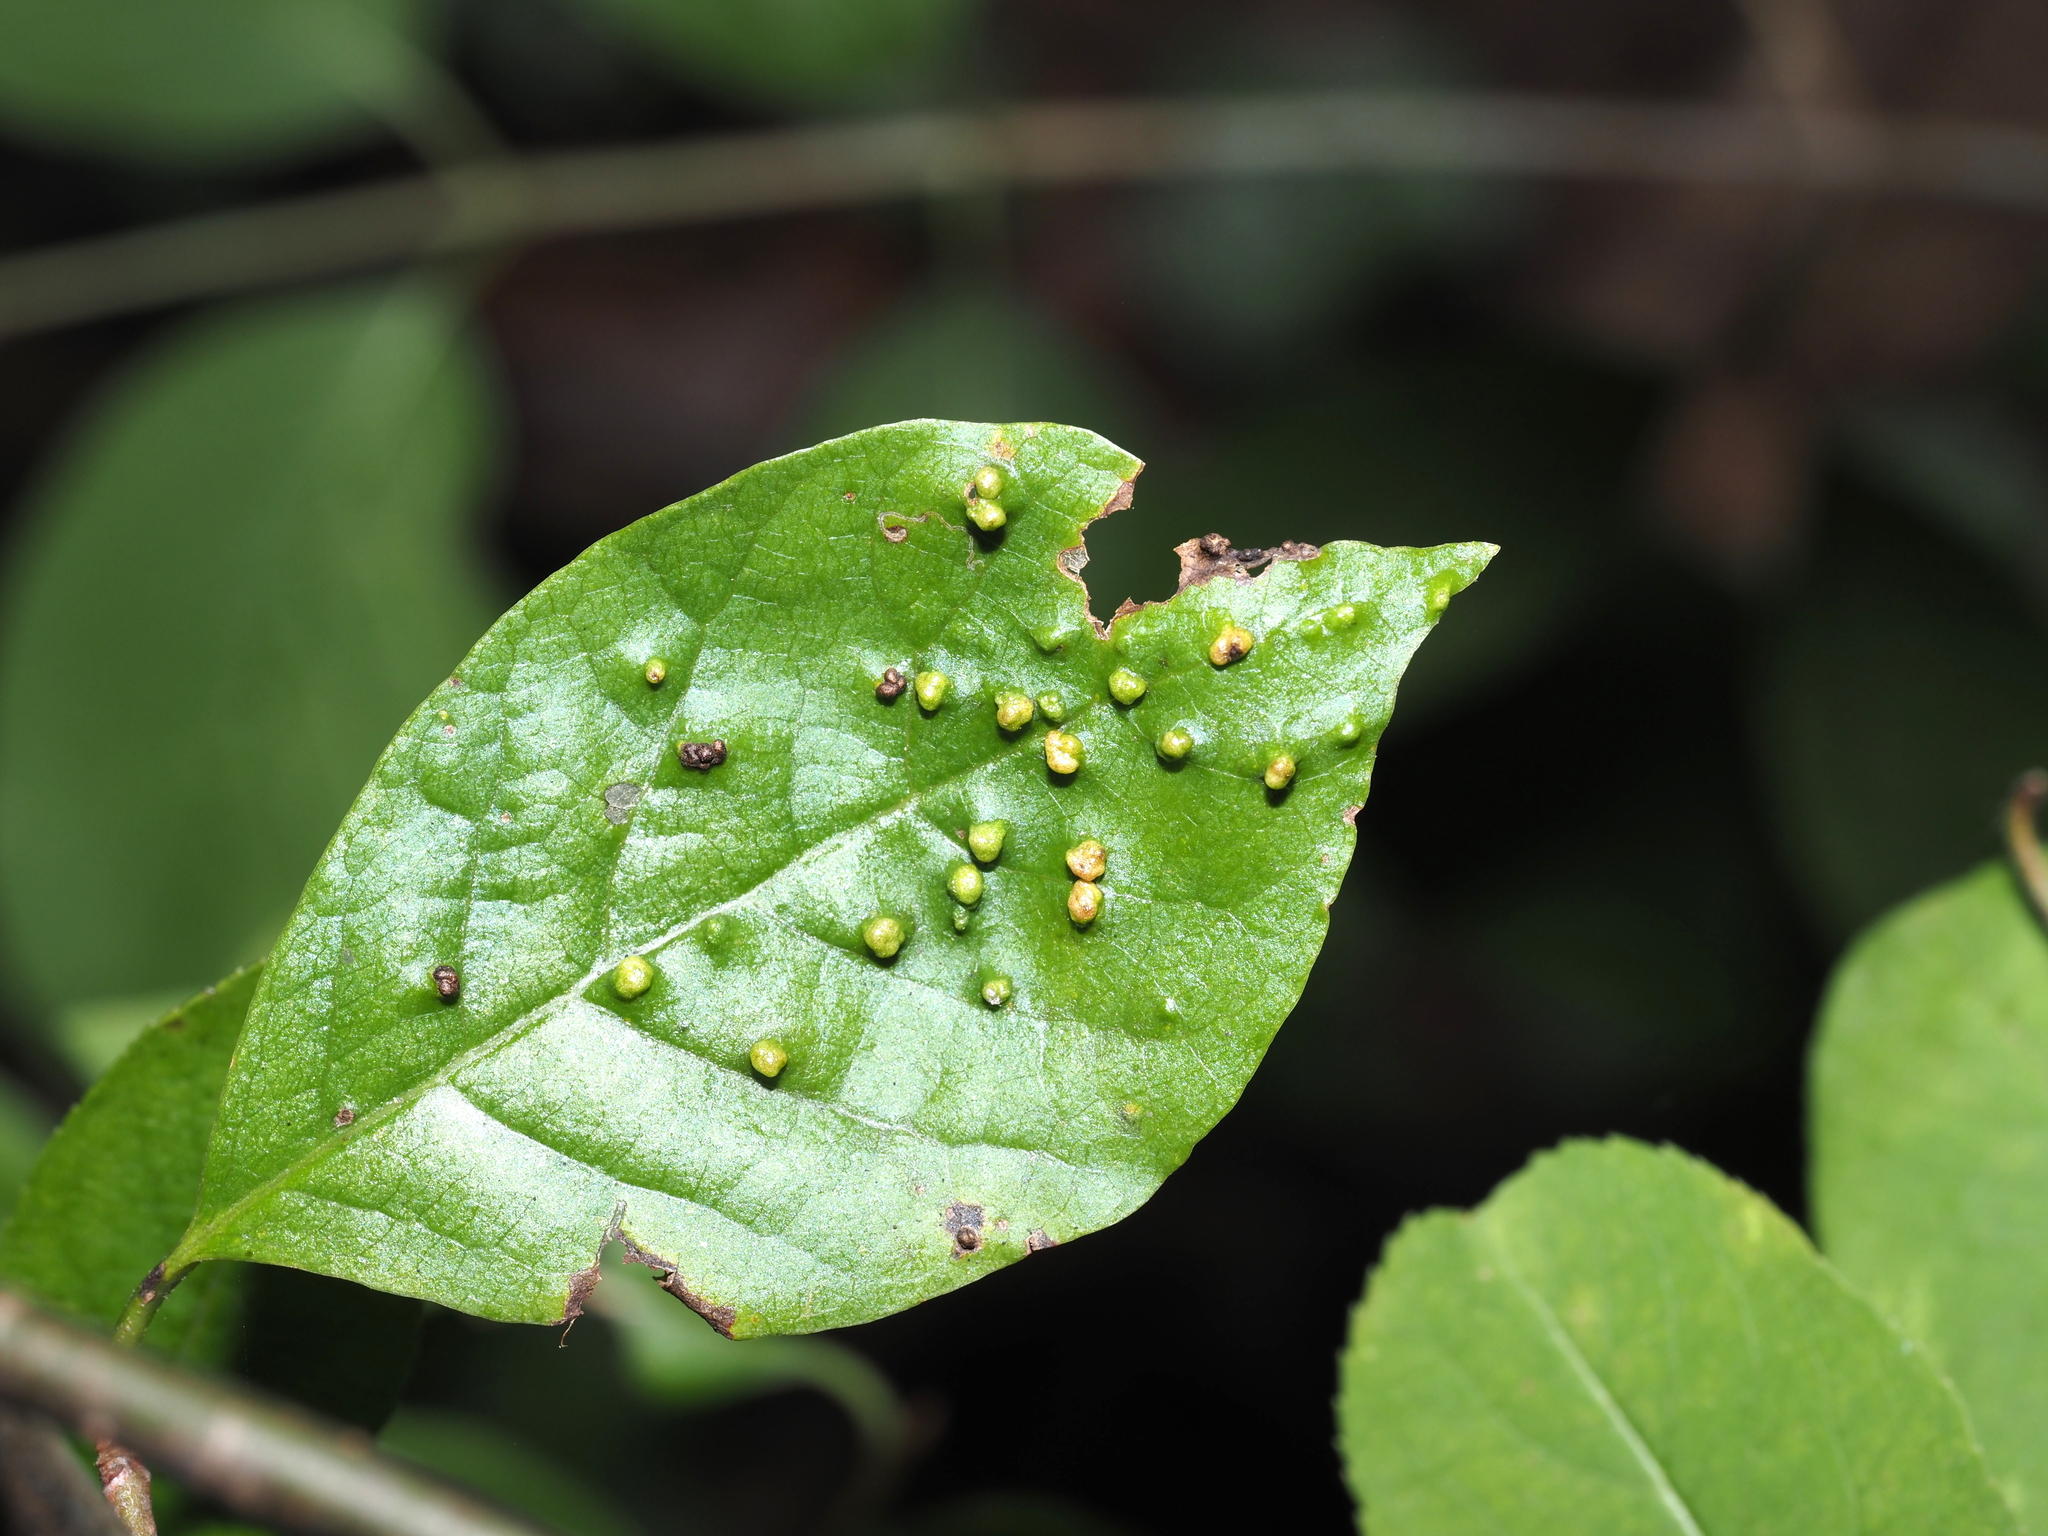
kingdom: Animalia
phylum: Arthropoda
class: Arachnida
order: Trombidiformes
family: Eriophyidae
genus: Aceria
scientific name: Aceria
